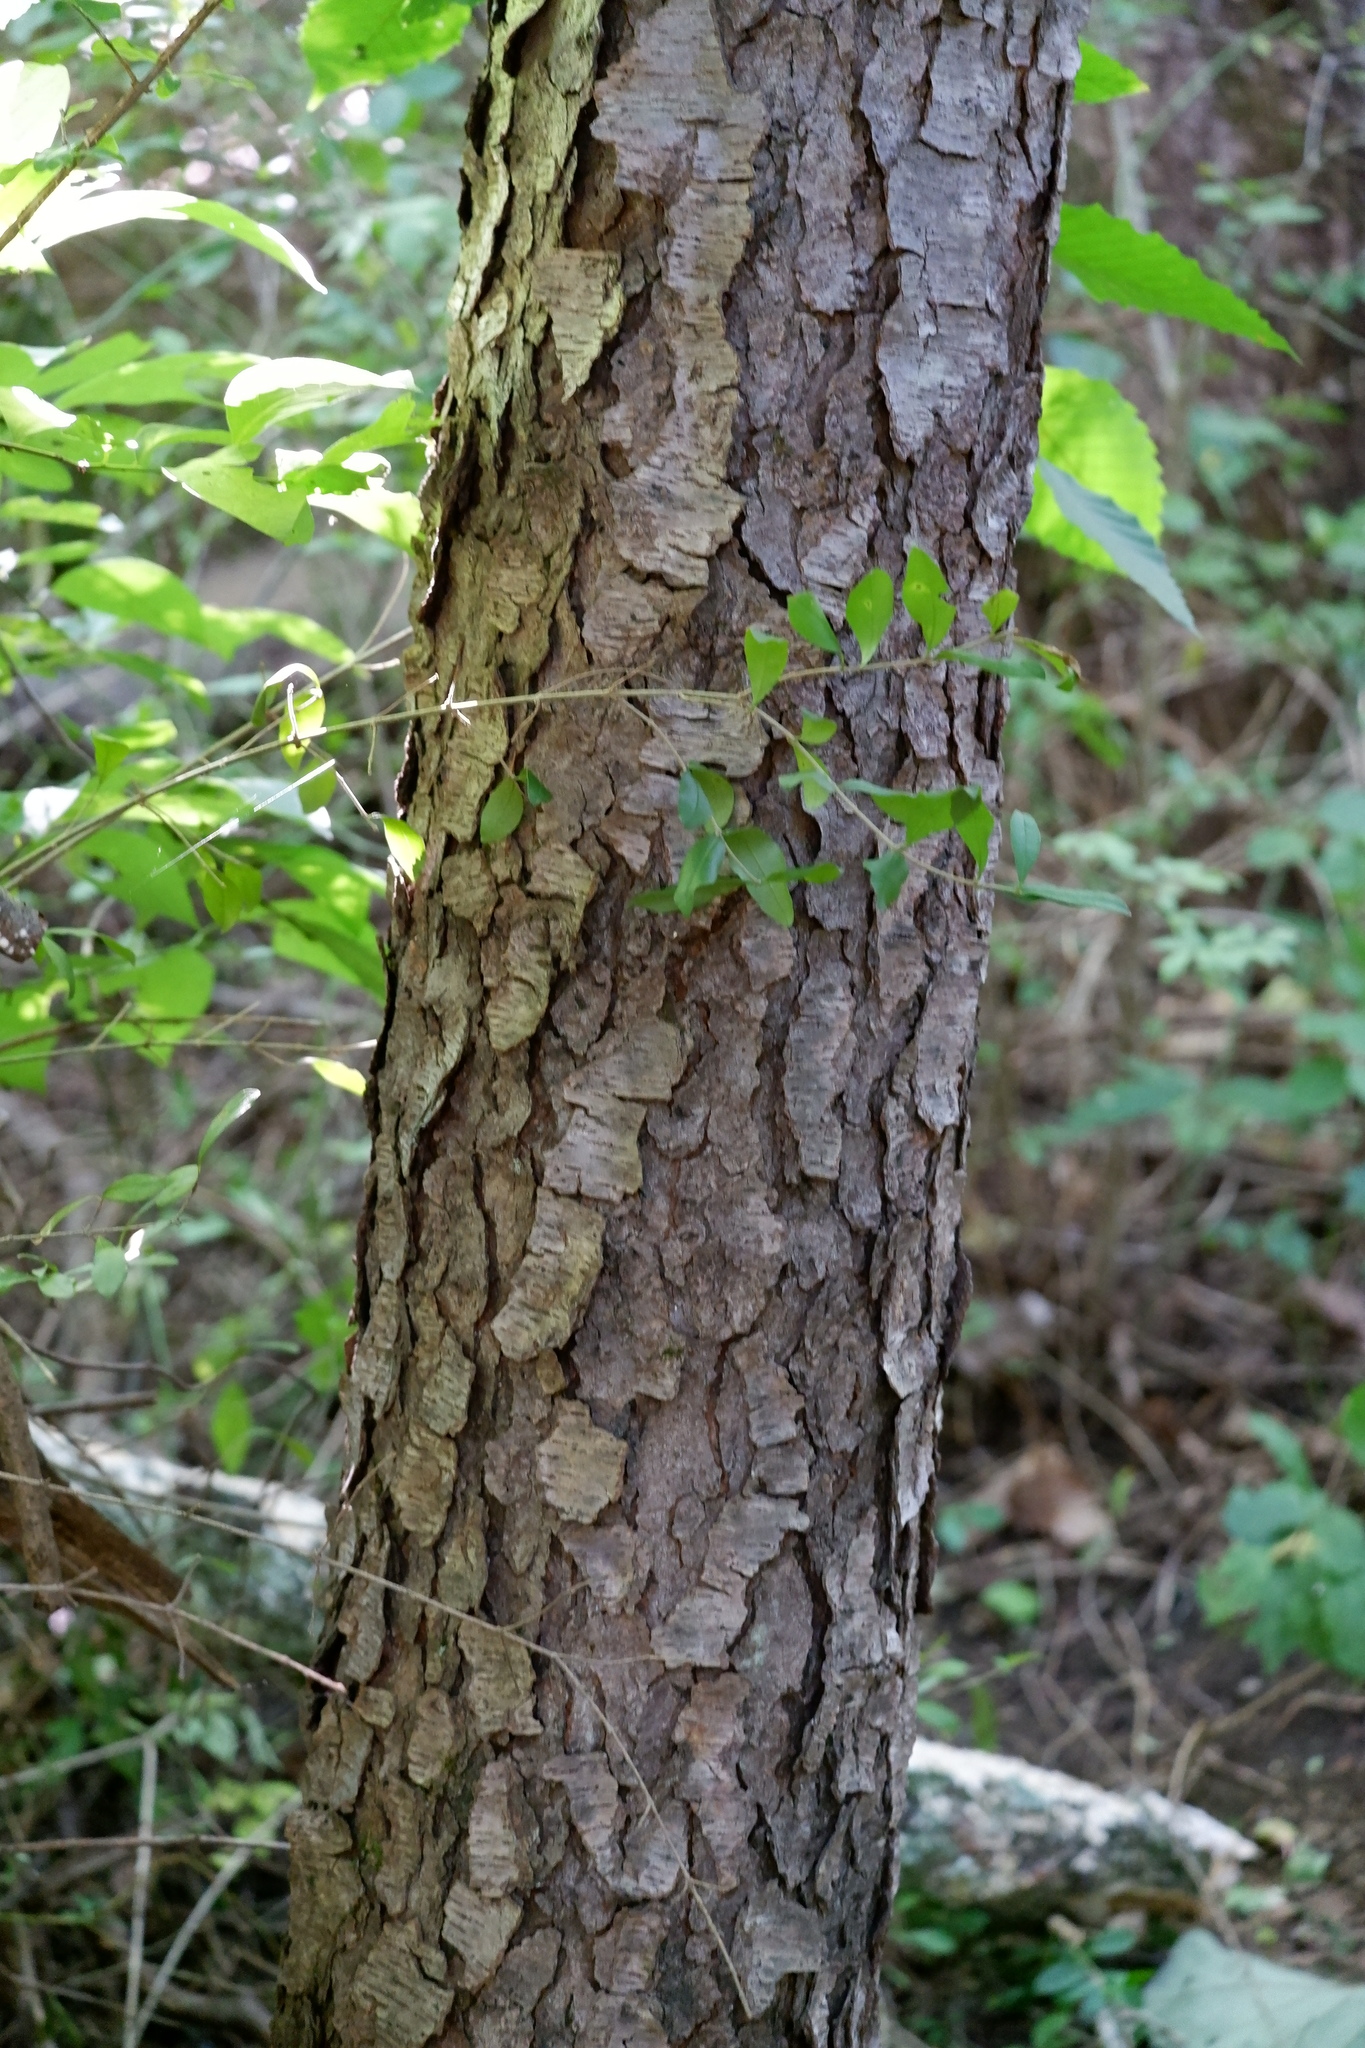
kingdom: Plantae
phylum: Tracheophyta
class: Magnoliopsida
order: Rosales
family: Rosaceae
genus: Prunus
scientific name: Prunus serotina
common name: Black cherry
